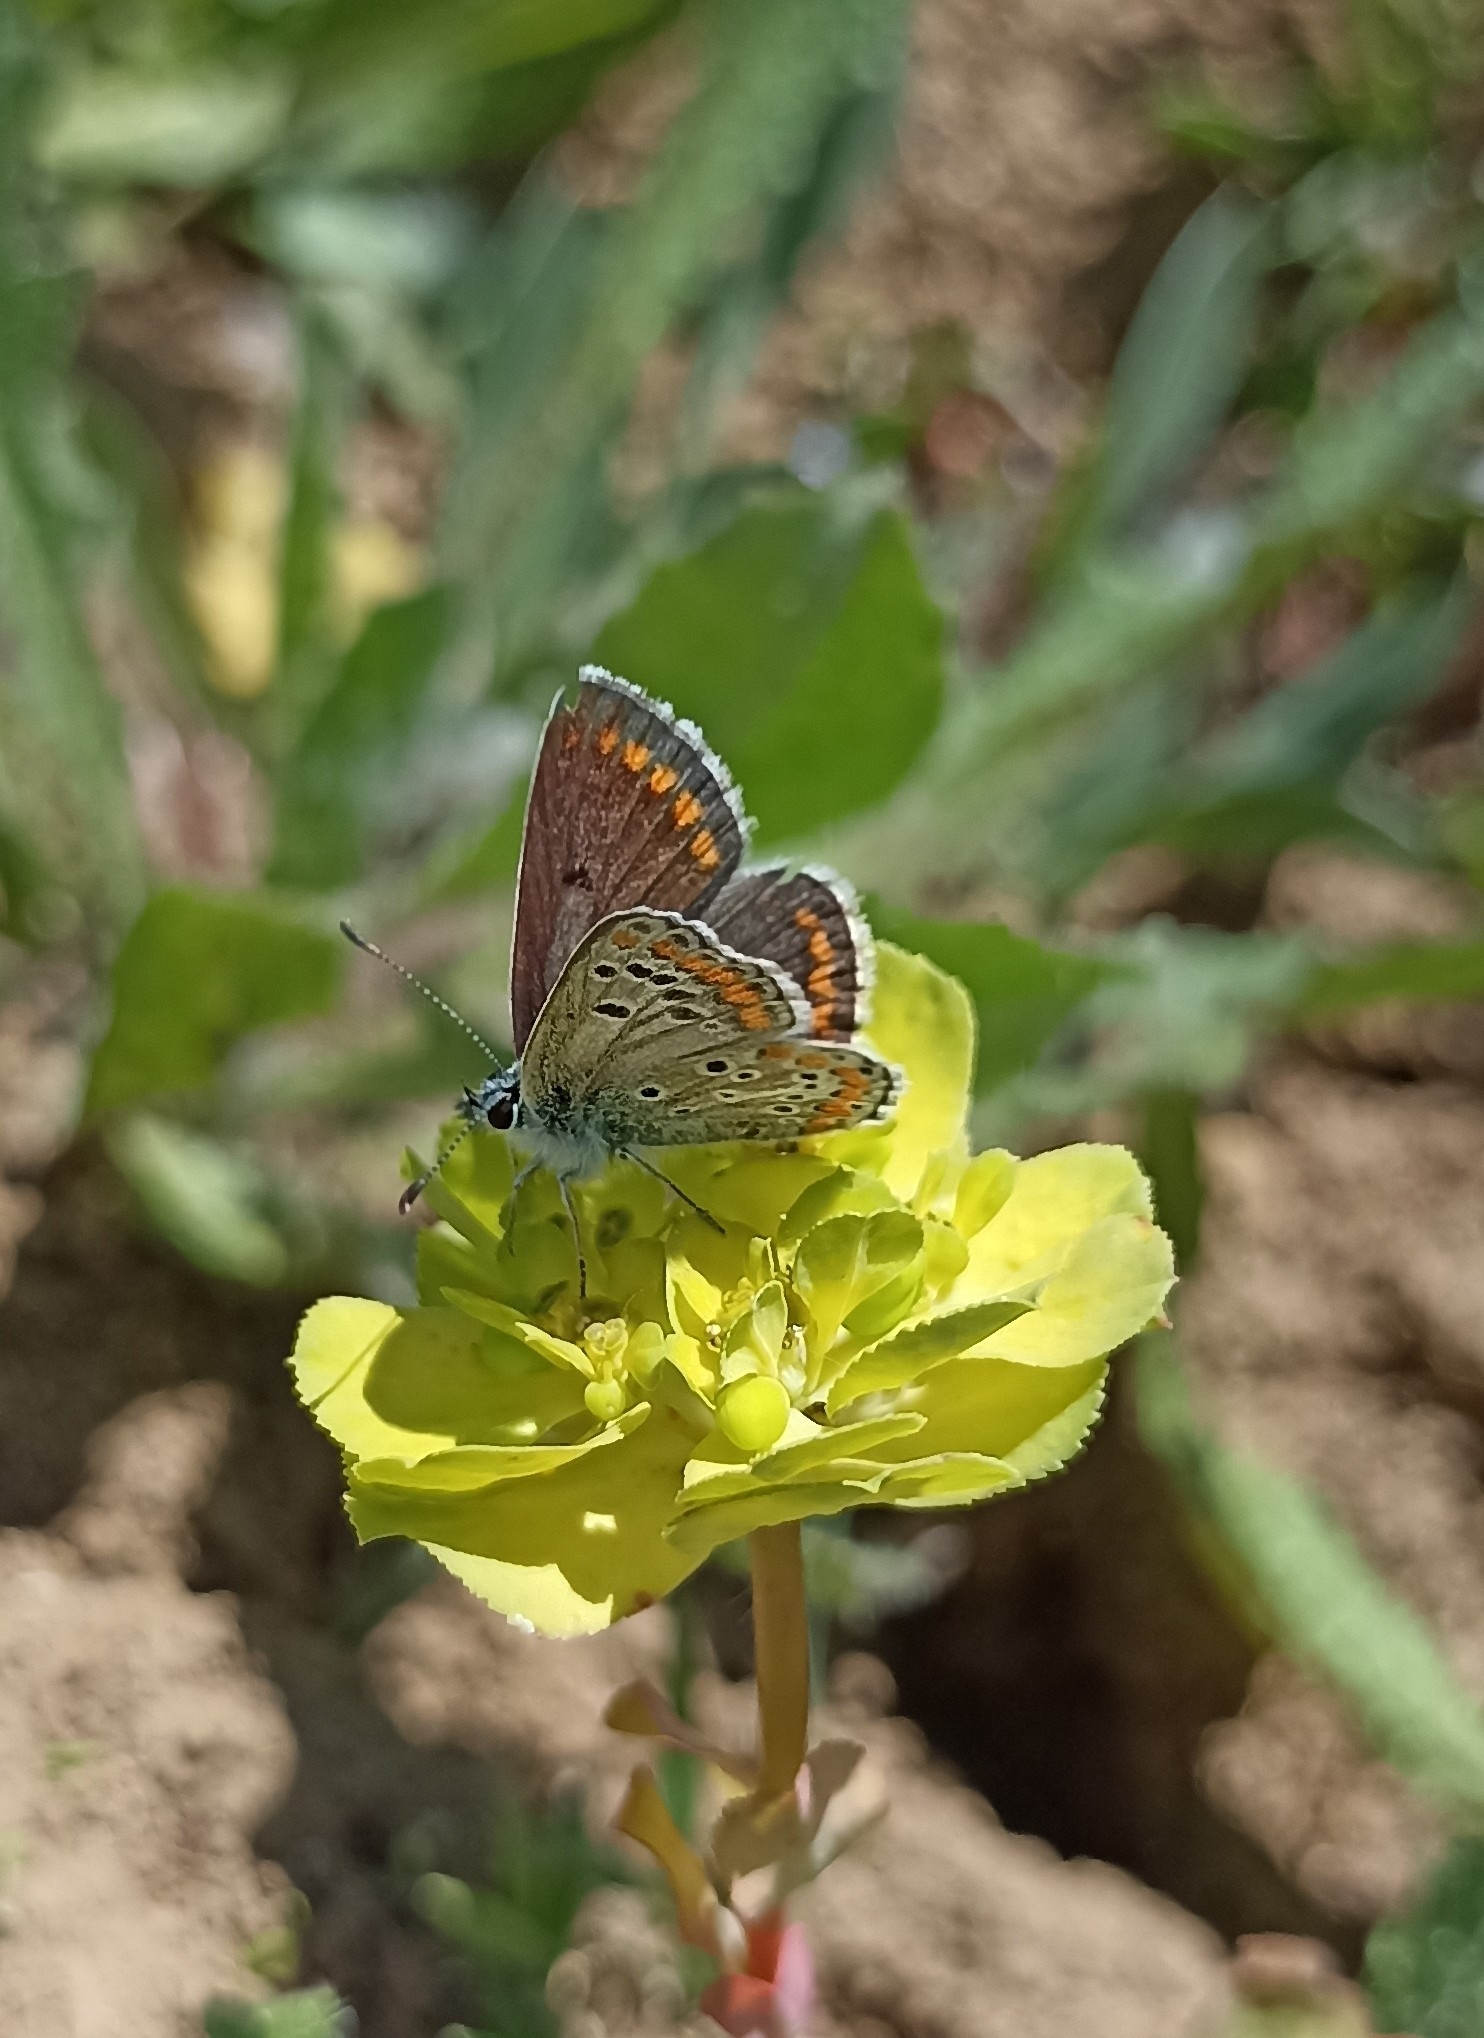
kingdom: Animalia
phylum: Arthropoda
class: Insecta
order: Lepidoptera
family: Lycaenidae
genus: Aricia
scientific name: Aricia agestis
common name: Brown argus
